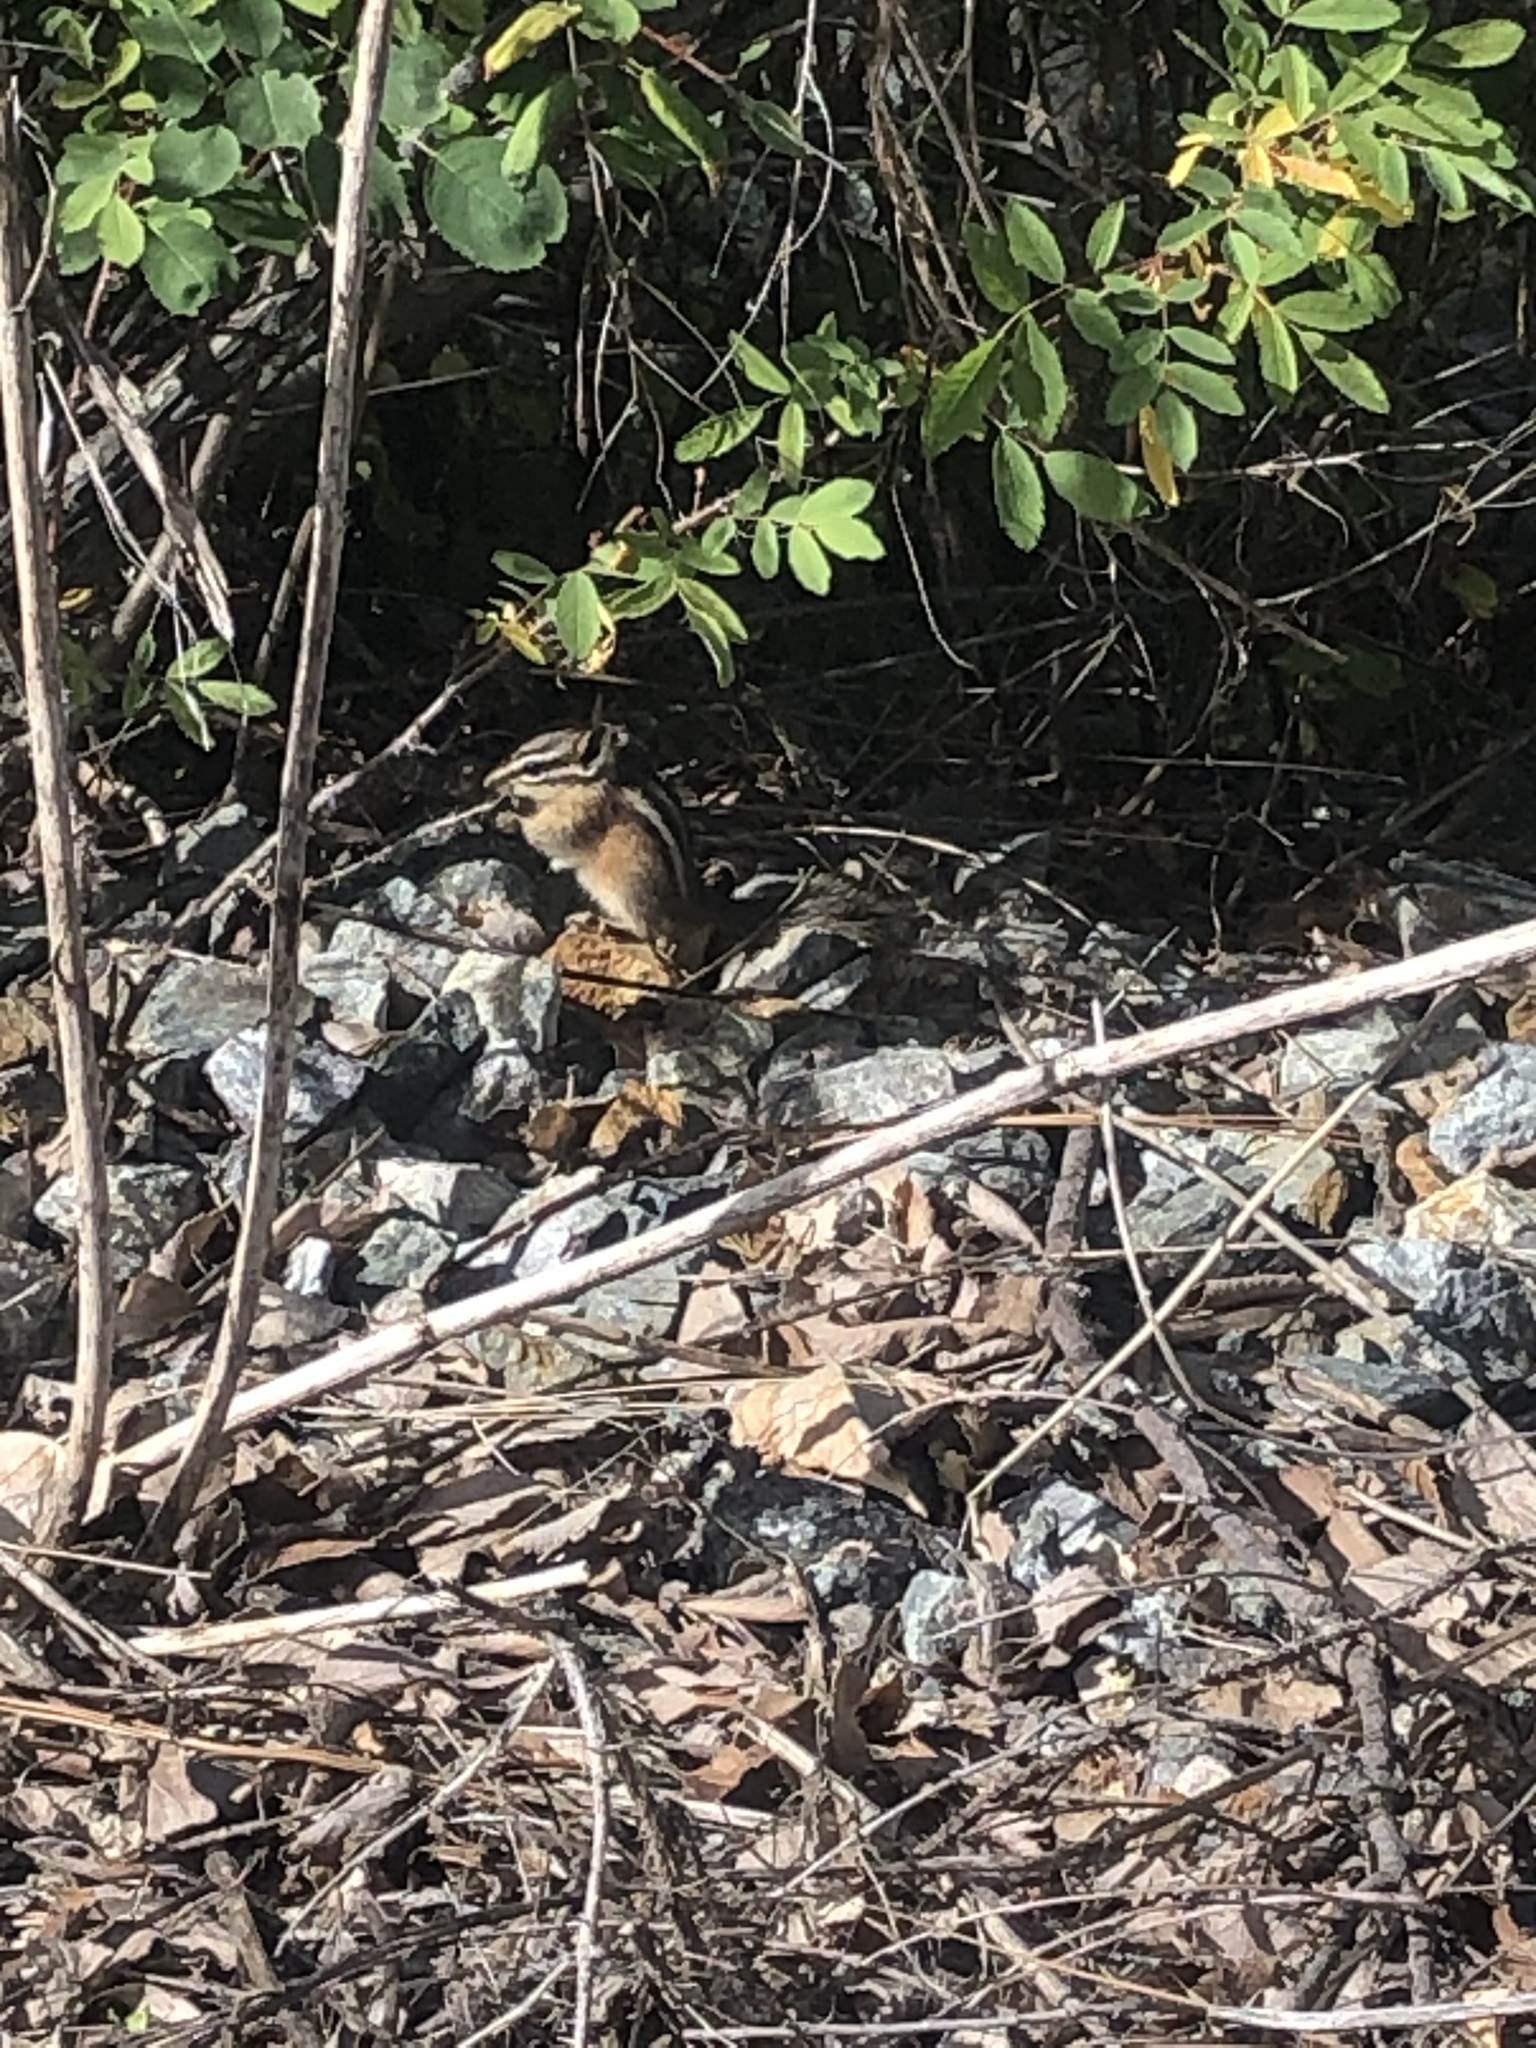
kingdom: Animalia
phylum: Chordata
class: Mammalia
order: Rodentia
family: Sciuridae
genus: Tamias
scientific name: Tamias amoenus
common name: Yellow-pine chipmunk
